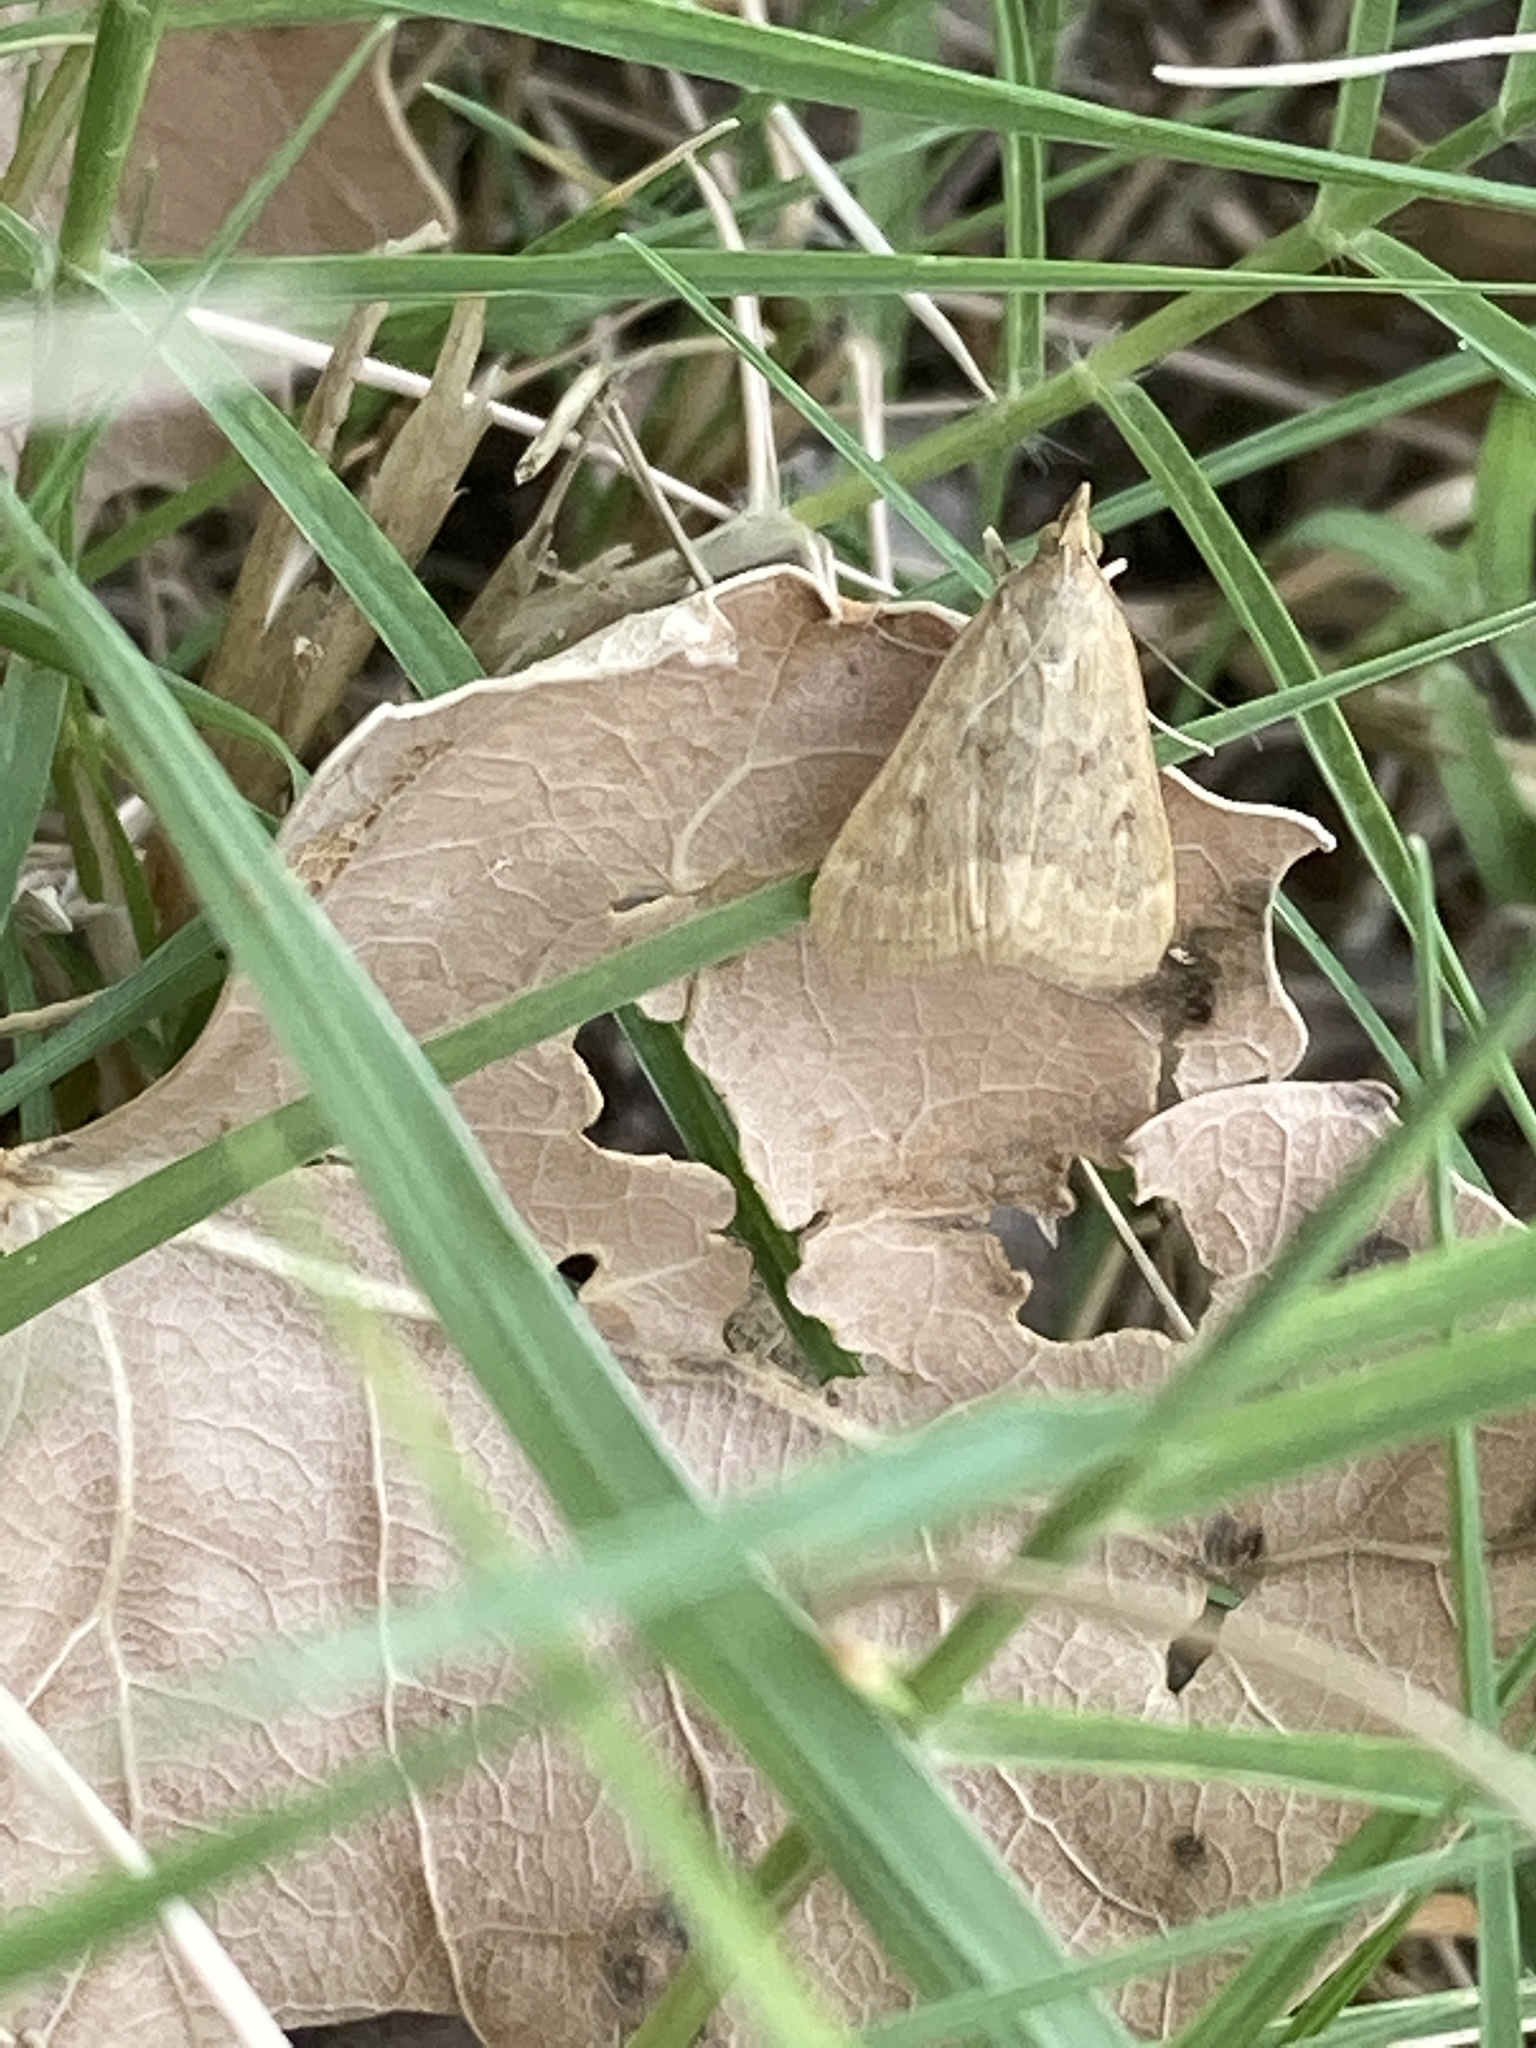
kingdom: Animalia
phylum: Arthropoda
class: Insecta
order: Lepidoptera
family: Crambidae
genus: Achyra
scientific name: Achyra rantalis
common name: Garden webworm
